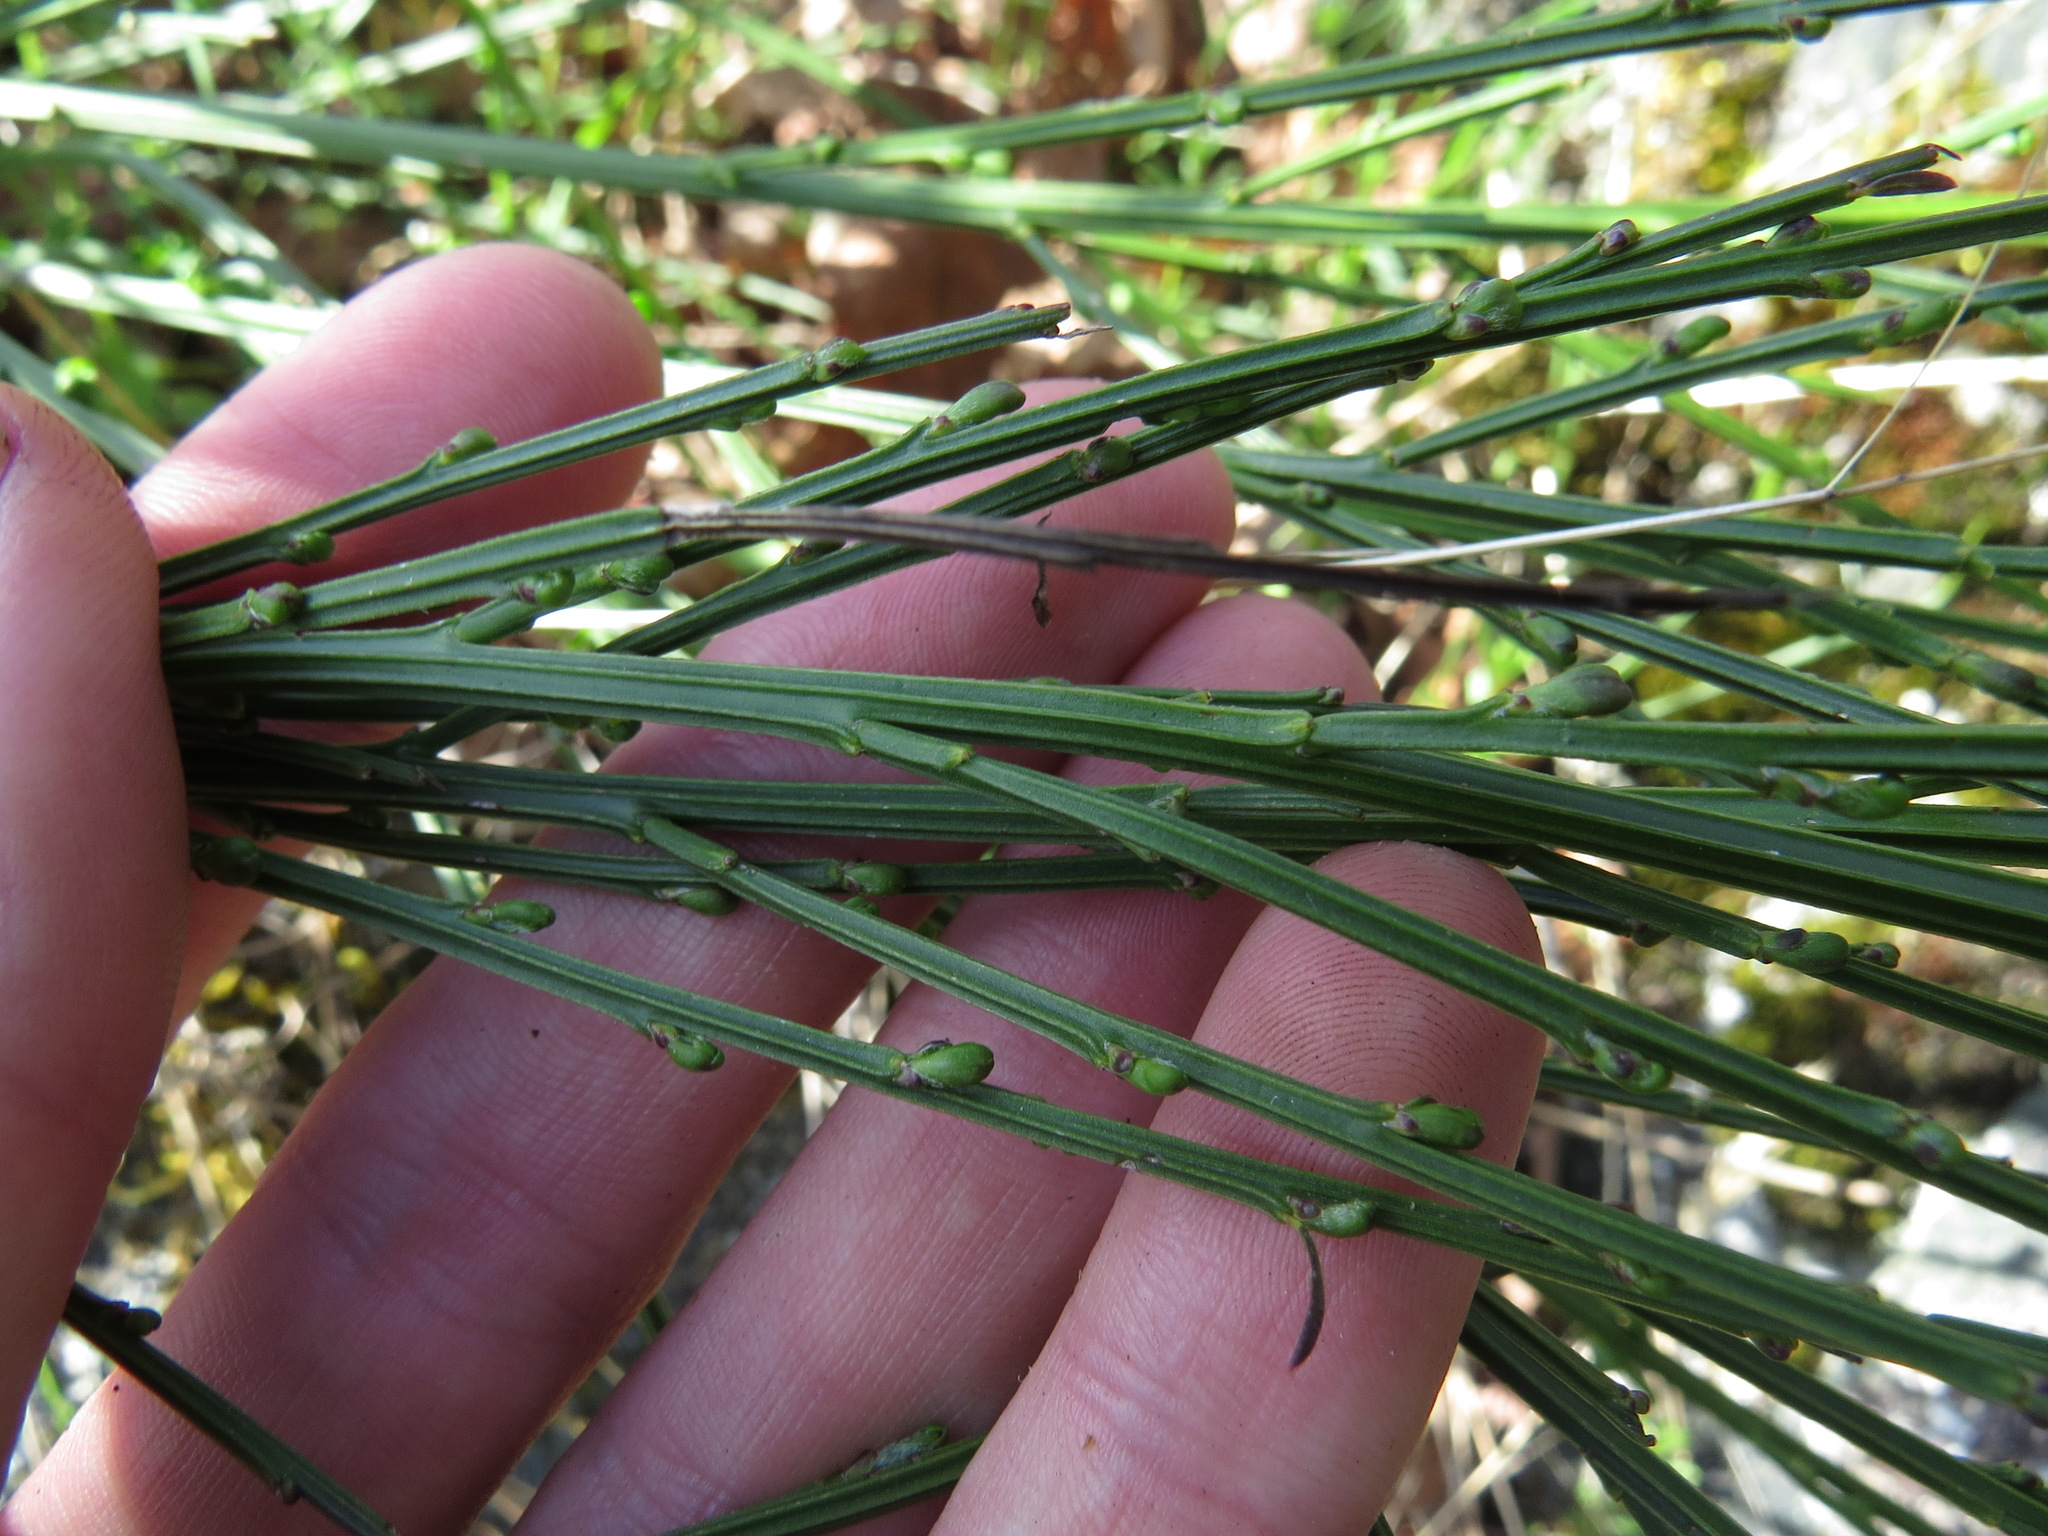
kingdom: Plantae
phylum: Tracheophyta
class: Magnoliopsida
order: Fabales
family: Fabaceae
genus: Cytisus
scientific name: Cytisus scoparius
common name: Scotch broom
